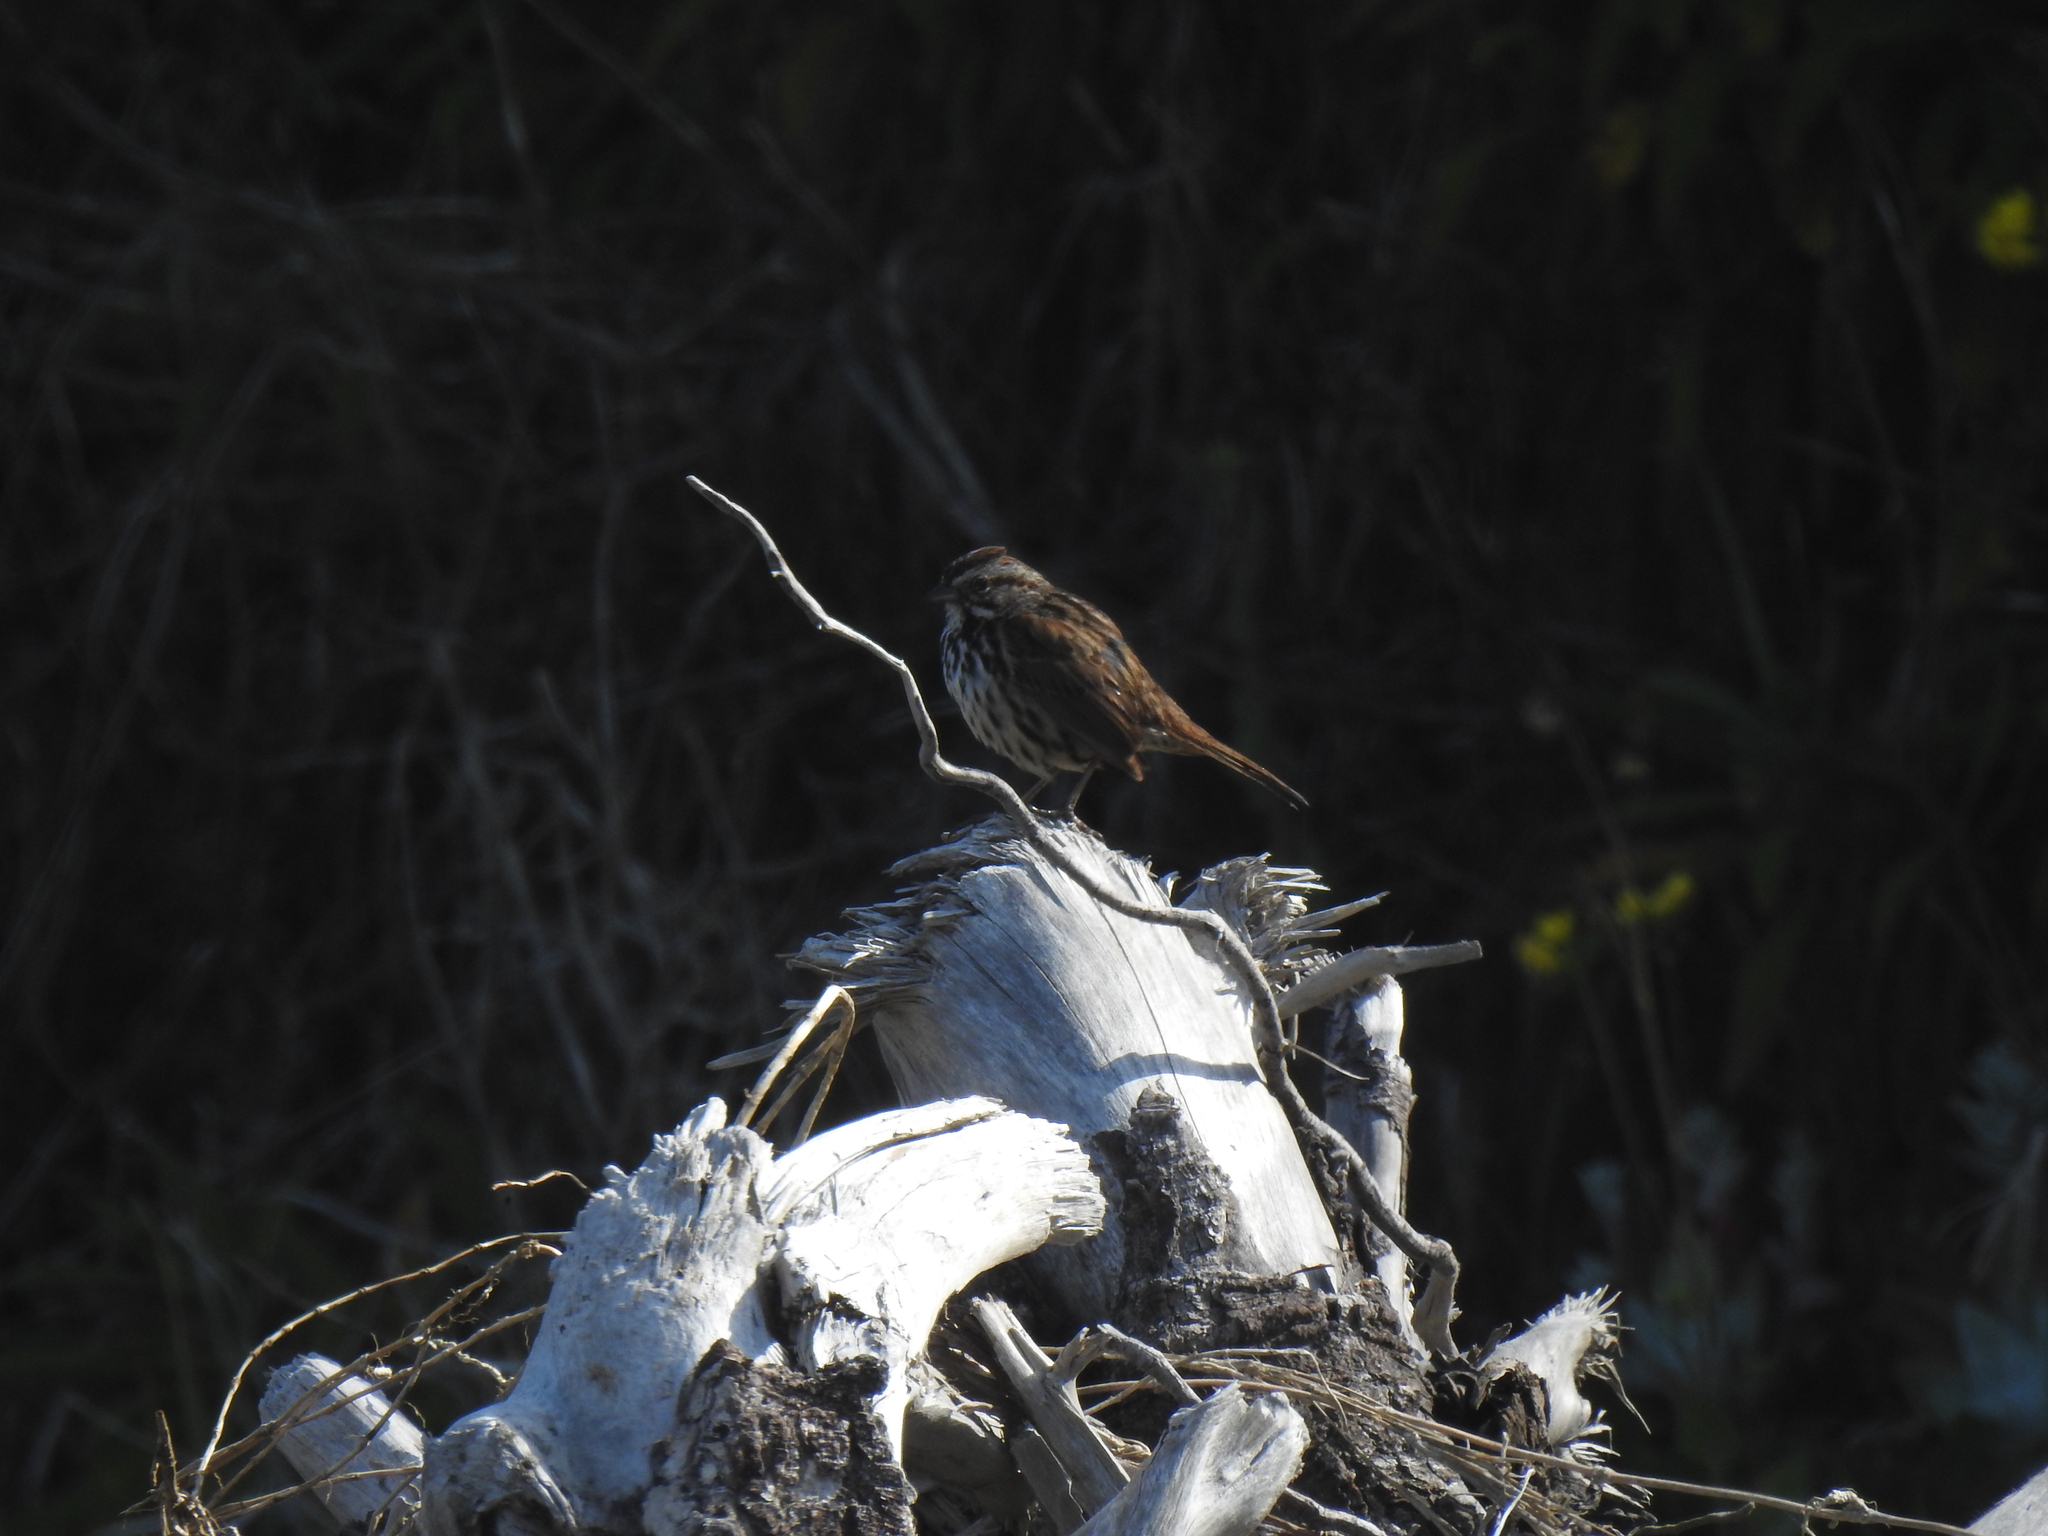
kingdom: Animalia
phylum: Chordata
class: Aves
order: Passeriformes
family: Passerellidae
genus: Melospiza
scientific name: Melospiza melodia
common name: Song sparrow
